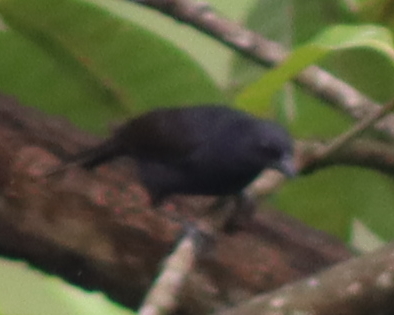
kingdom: Animalia
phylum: Chordata
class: Aves
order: Passeriformes
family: Icteridae
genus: Molothrus
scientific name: Molothrus bonariensis
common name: Shiny cowbird
